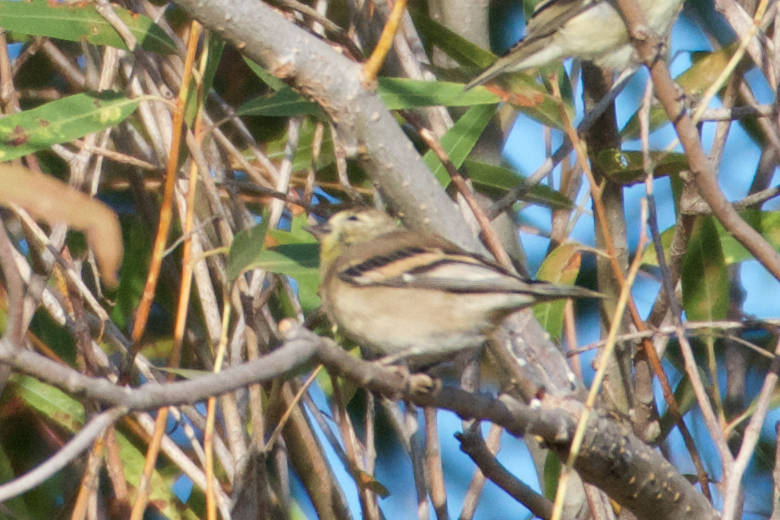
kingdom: Animalia
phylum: Chordata
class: Aves
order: Passeriformes
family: Fringillidae
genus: Spinus
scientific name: Spinus tristis
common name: American goldfinch
